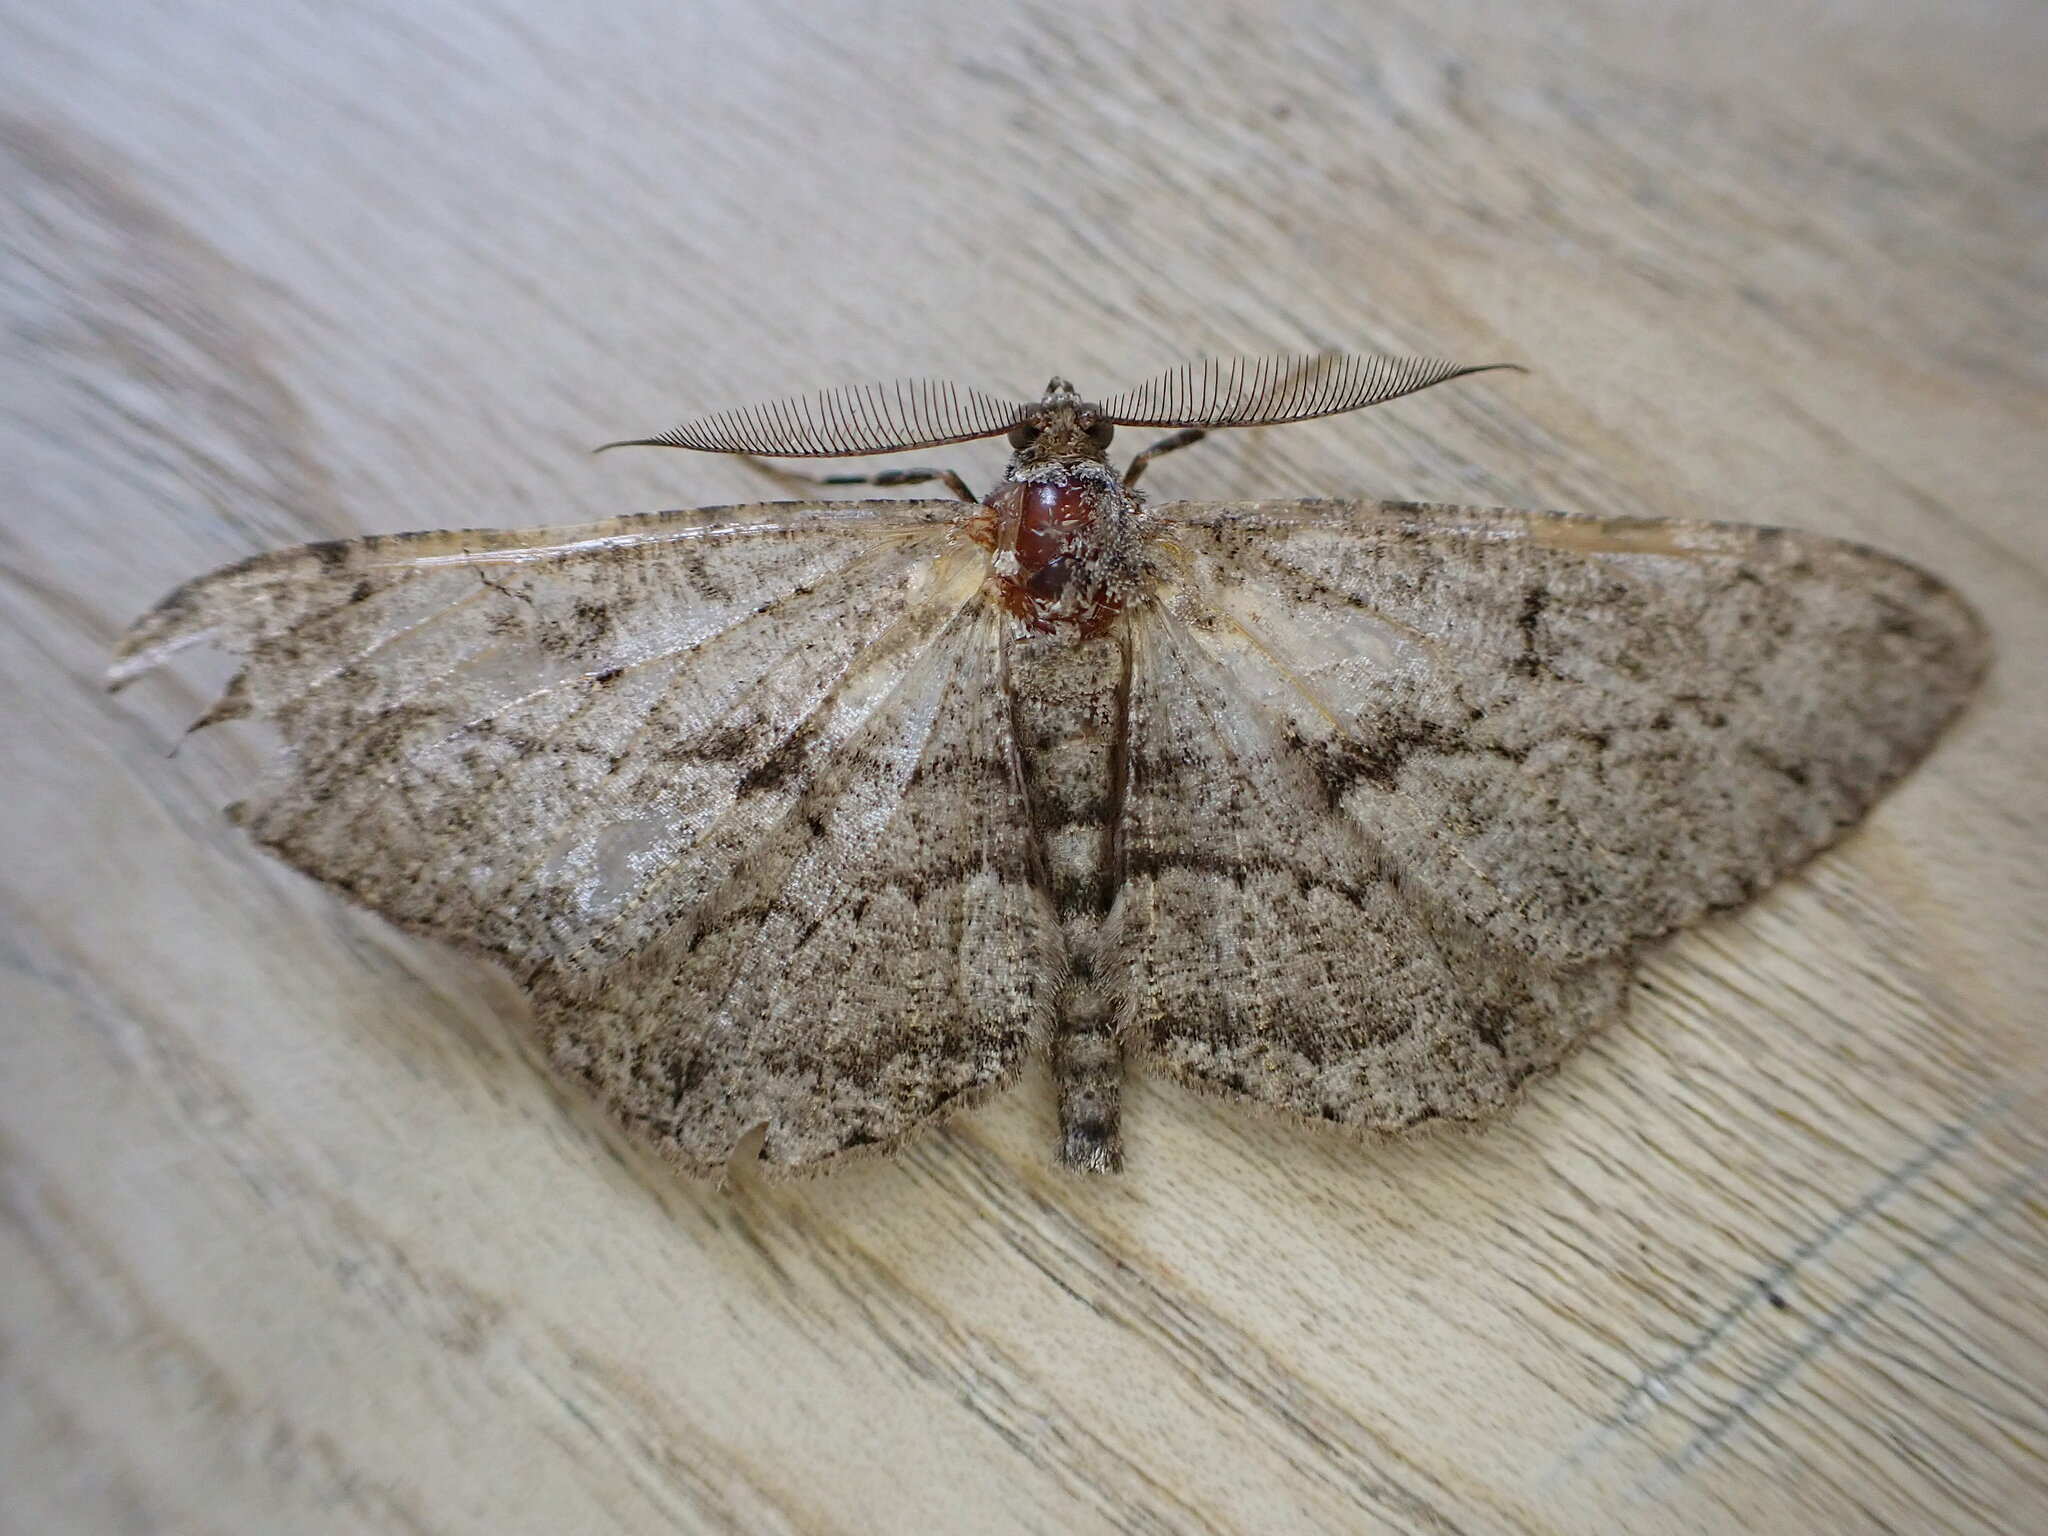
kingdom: Animalia
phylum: Arthropoda
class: Insecta
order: Lepidoptera
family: Geometridae
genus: Peribatodes
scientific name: Peribatodes rhomboidaria
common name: Willow beauty
